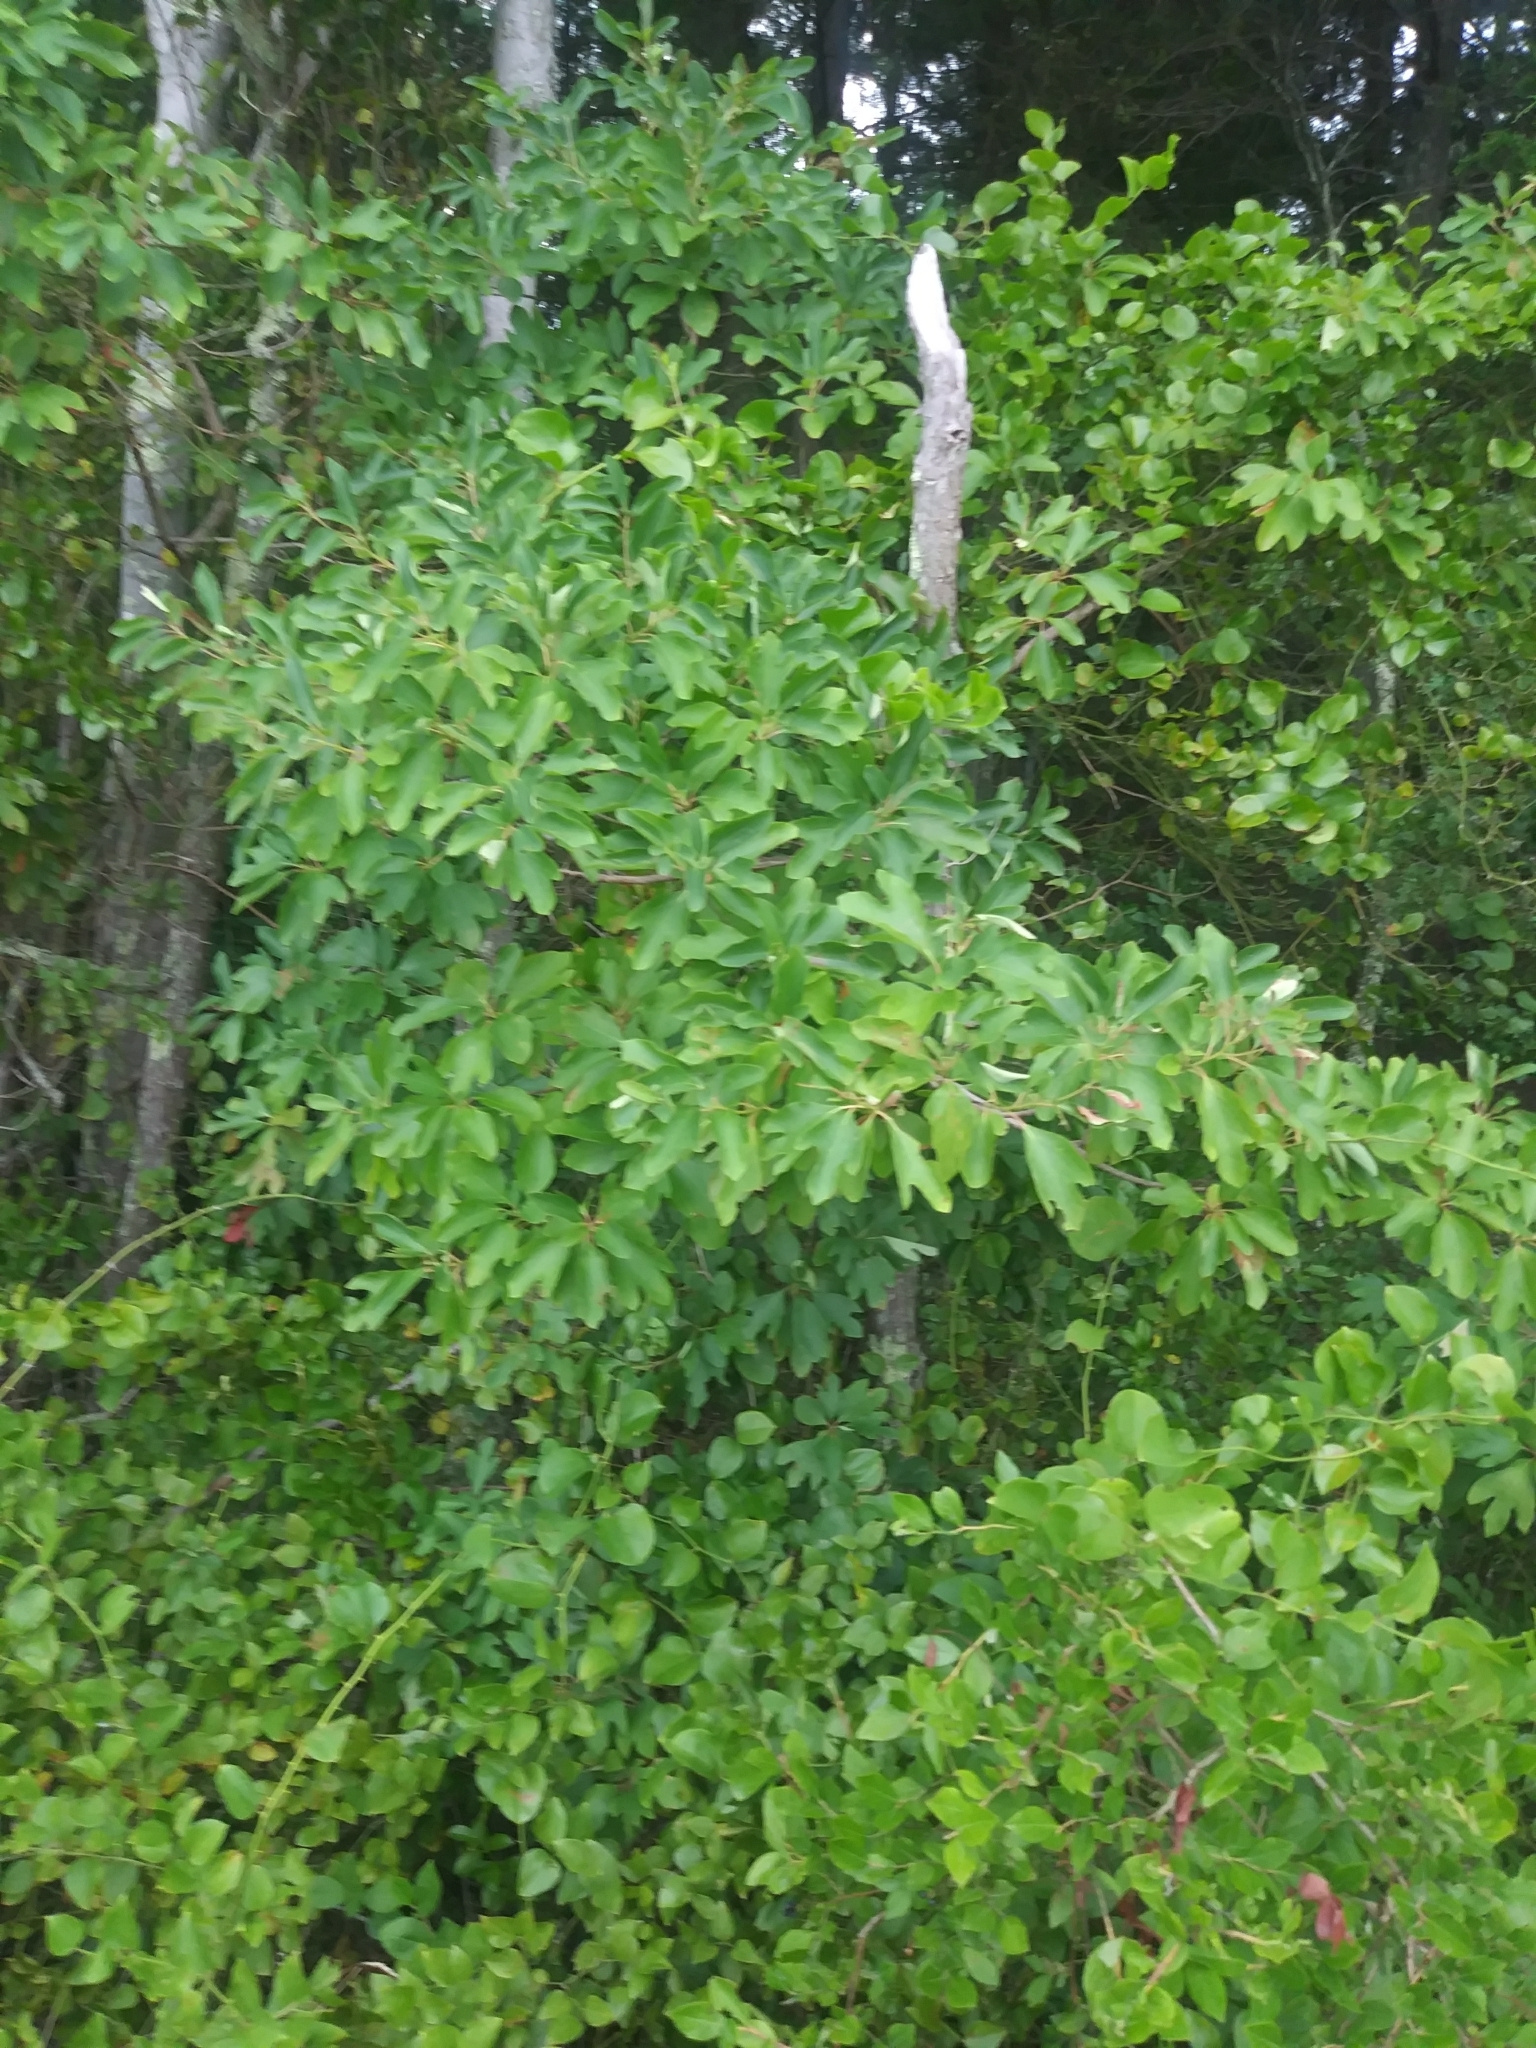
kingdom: Plantae
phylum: Tracheophyta
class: Magnoliopsida
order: Laurales
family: Lauraceae
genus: Sassafras
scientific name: Sassafras albidum
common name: Sassafras
